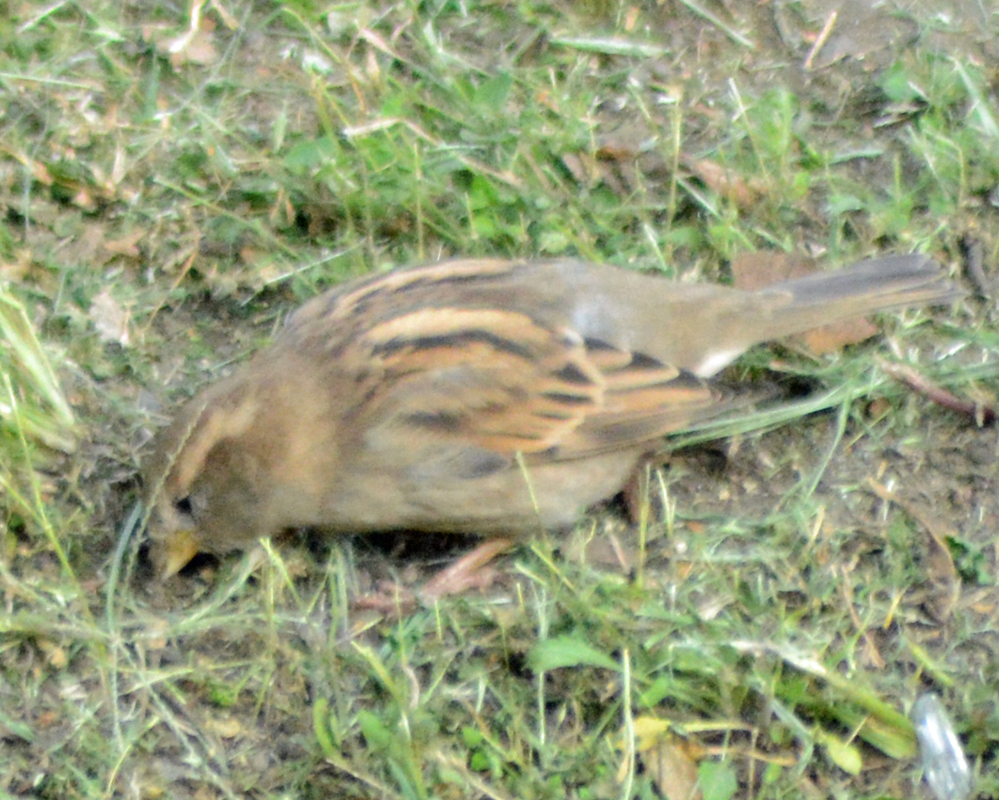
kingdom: Animalia
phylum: Chordata
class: Aves
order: Passeriformes
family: Passeridae
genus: Passer
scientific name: Passer domesticus
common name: House sparrow
